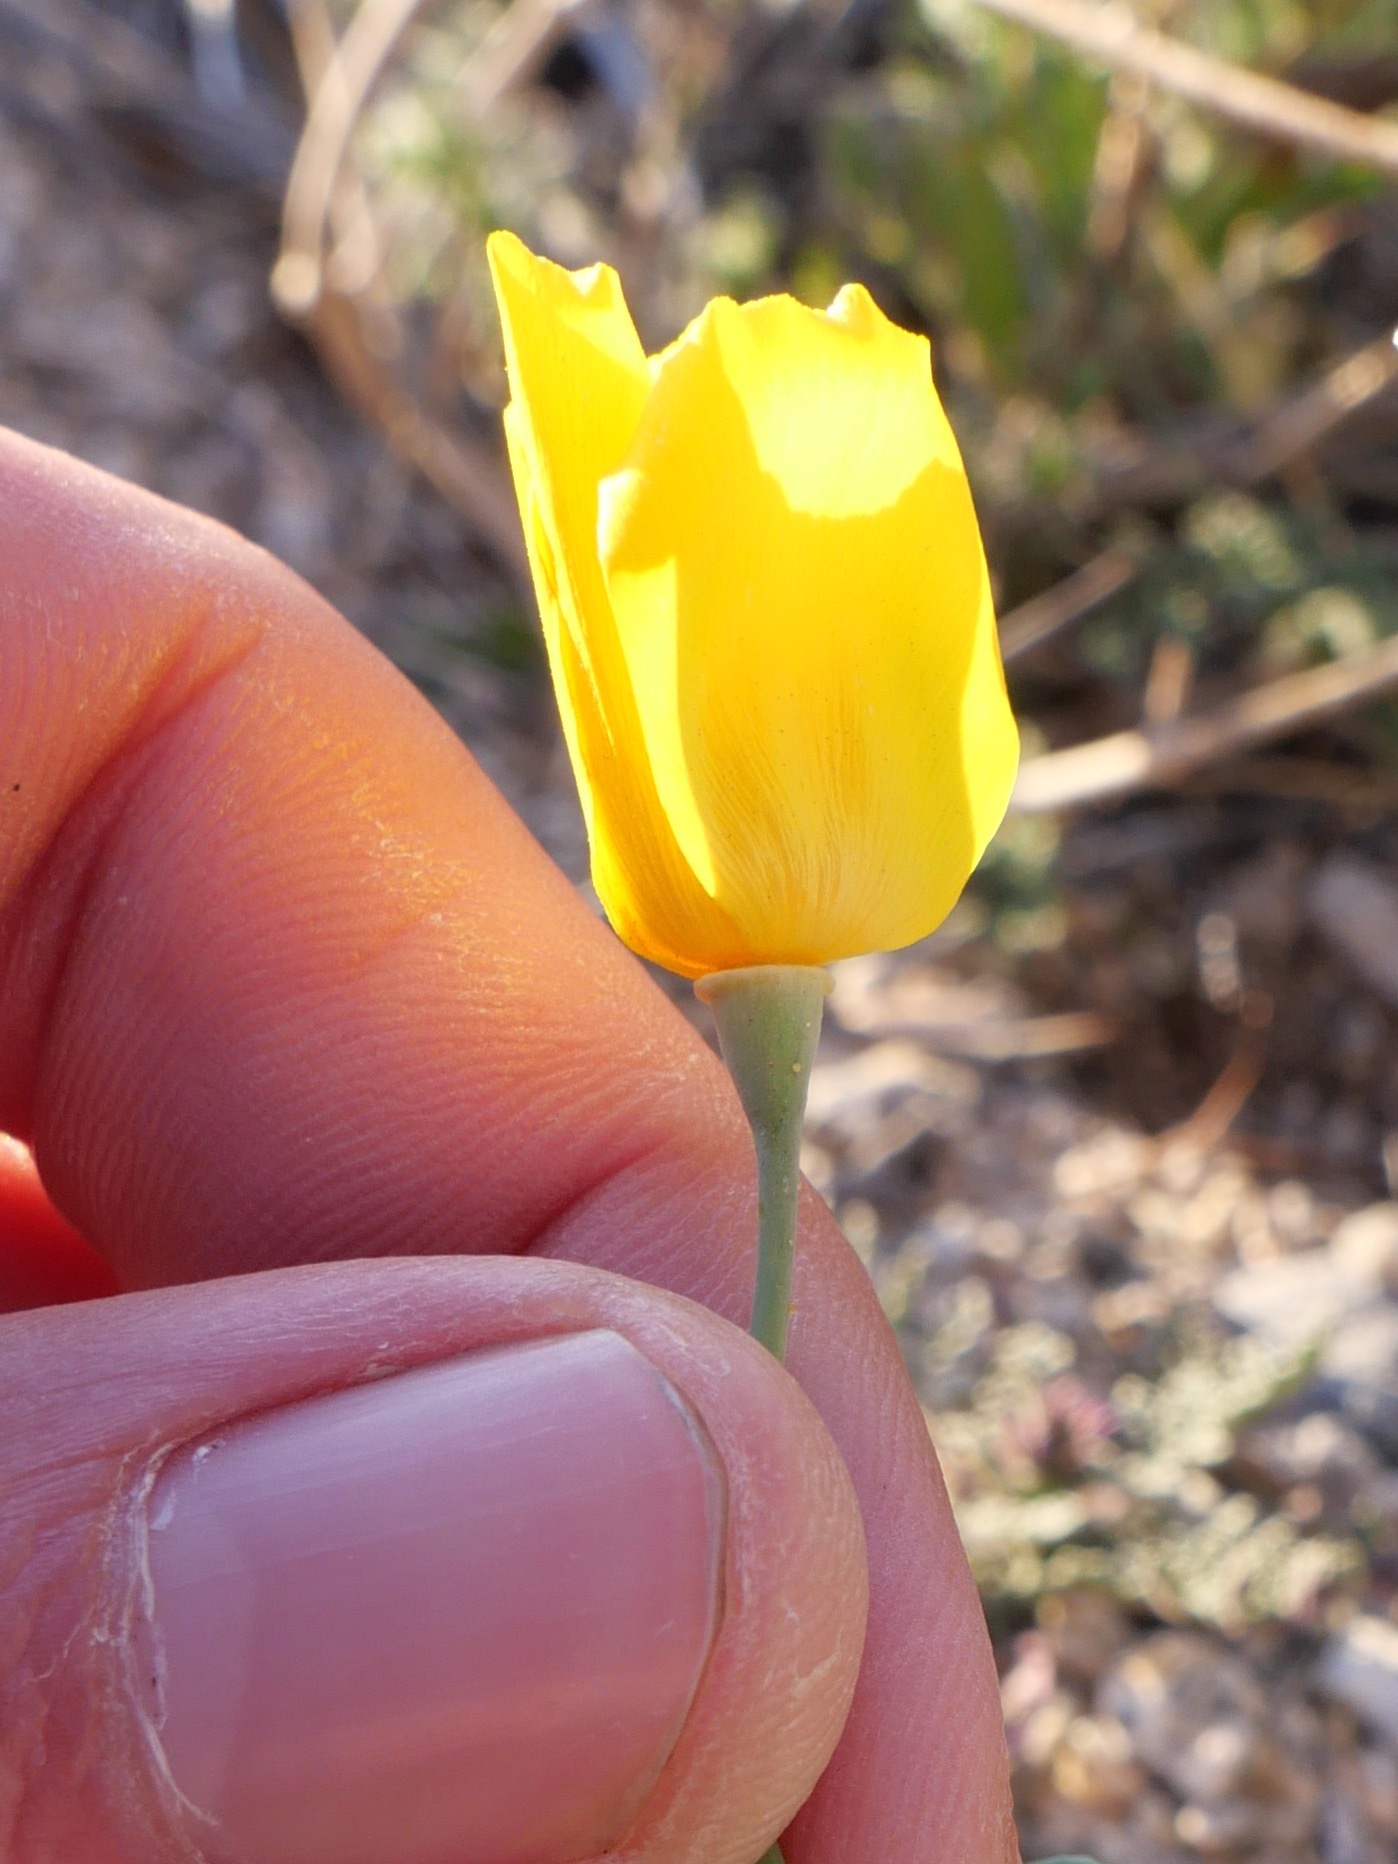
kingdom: Plantae
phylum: Tracheophyta
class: Magnoliopsida
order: Ranunculales
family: Papaveraceae
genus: Eschscholzia
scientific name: Eschscholzia papastillii
